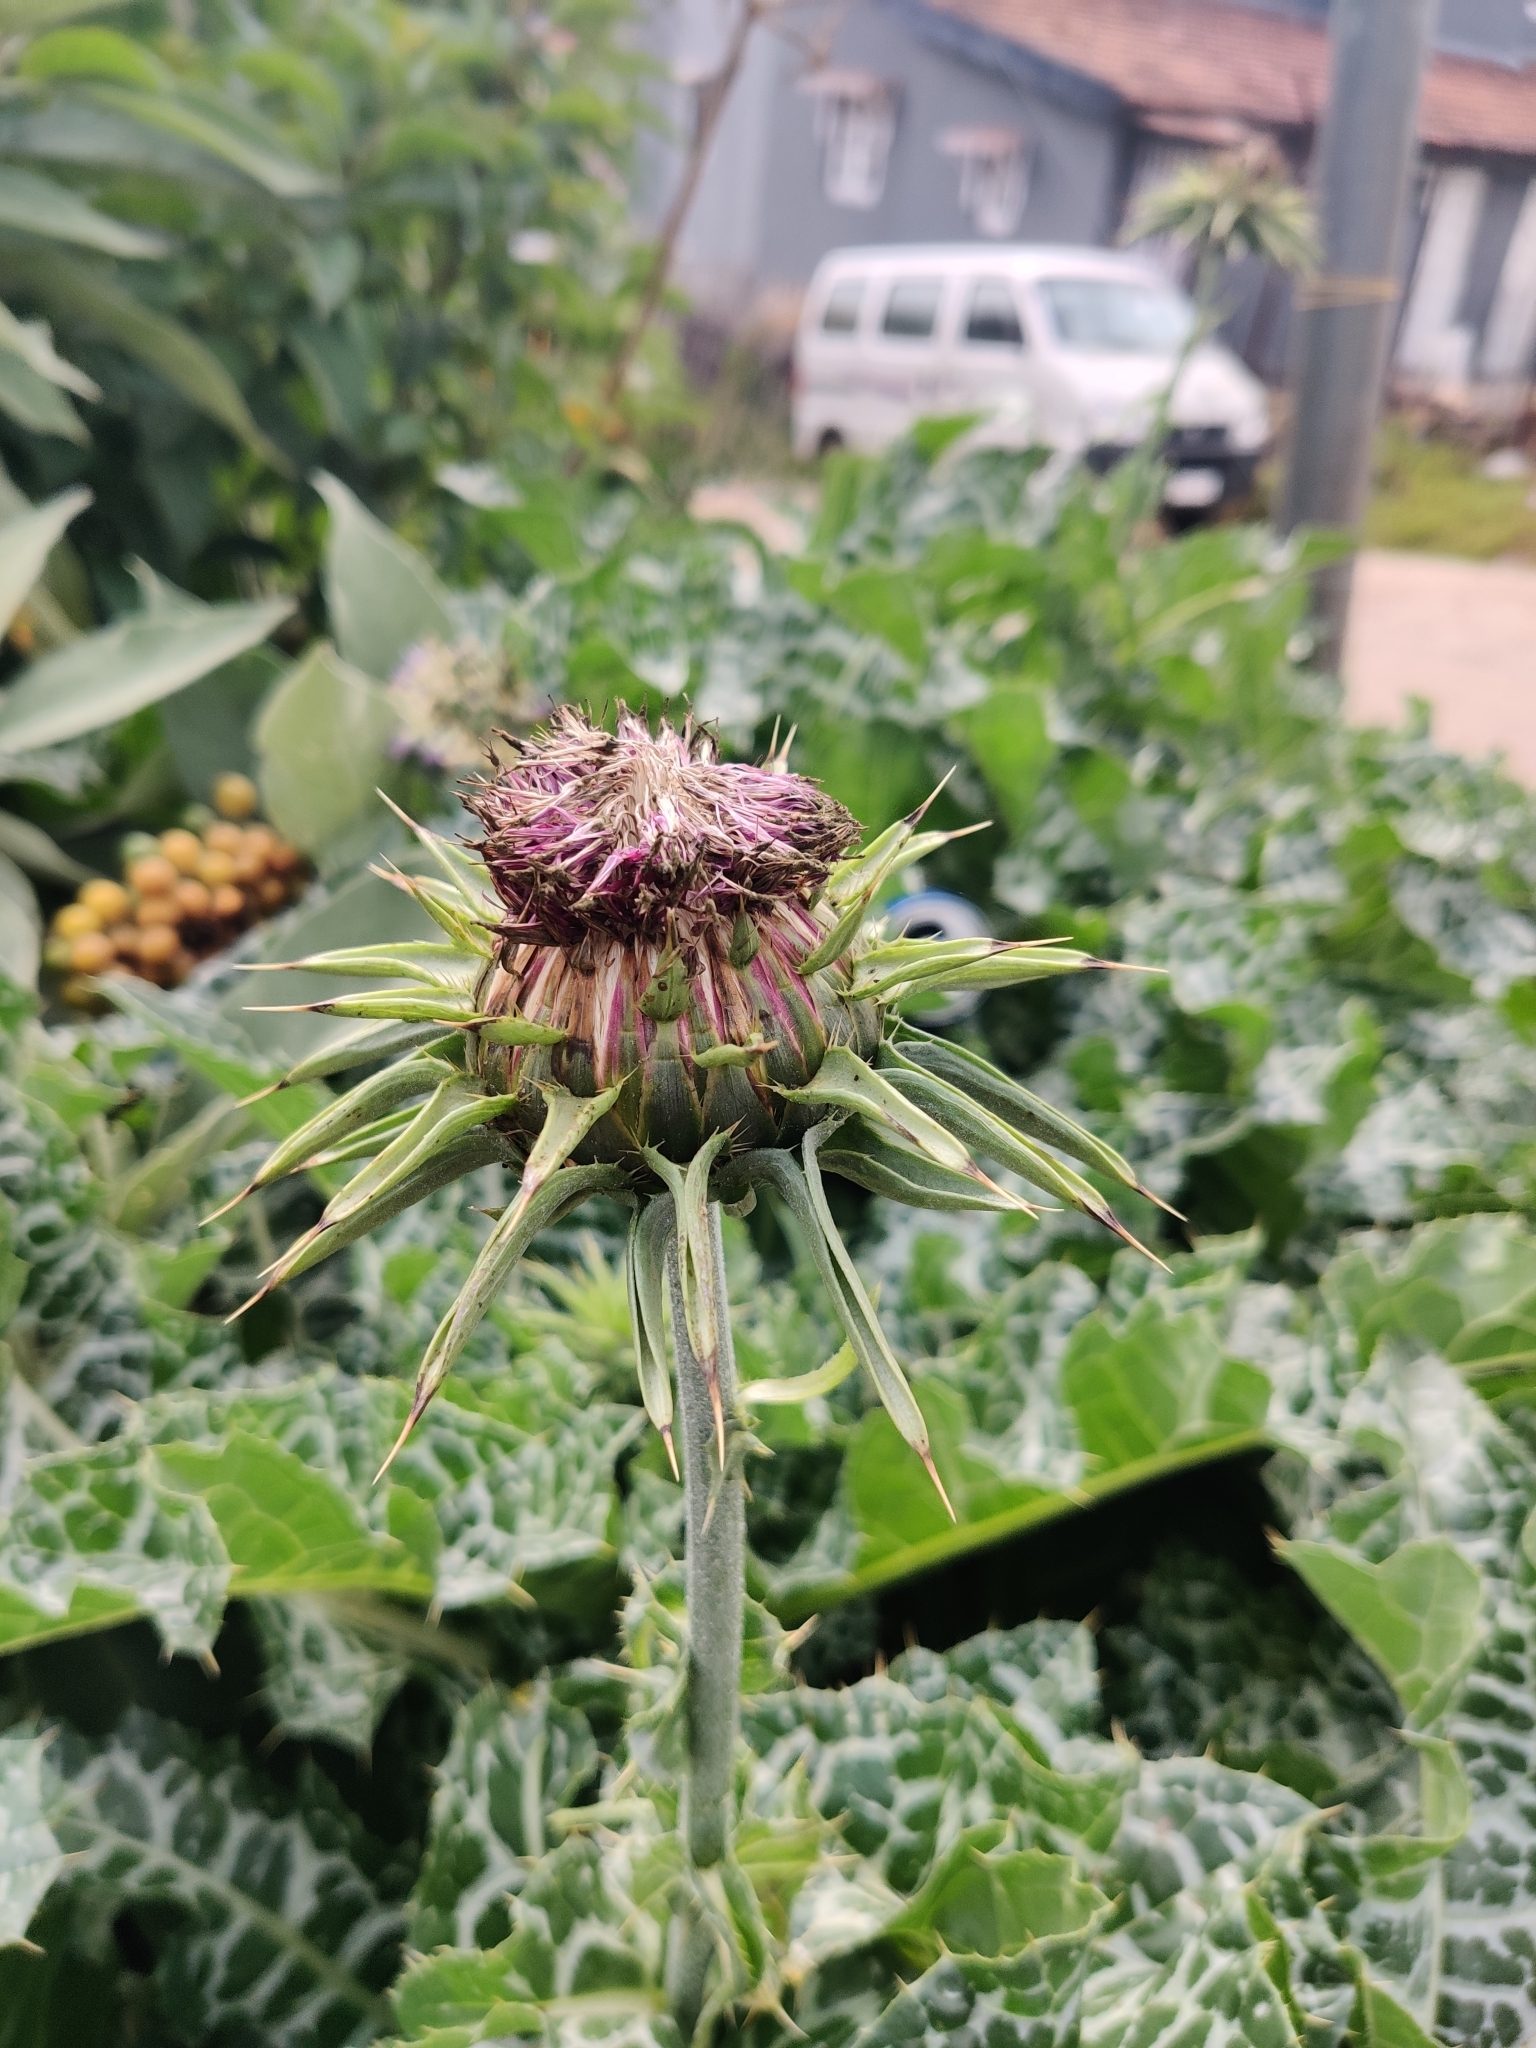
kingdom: Plantae
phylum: Tracheophyta
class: Magnoliopsida
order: Asterales
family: Asteraceae
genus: Silybum
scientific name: Silybum marianum
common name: Milk thistle
